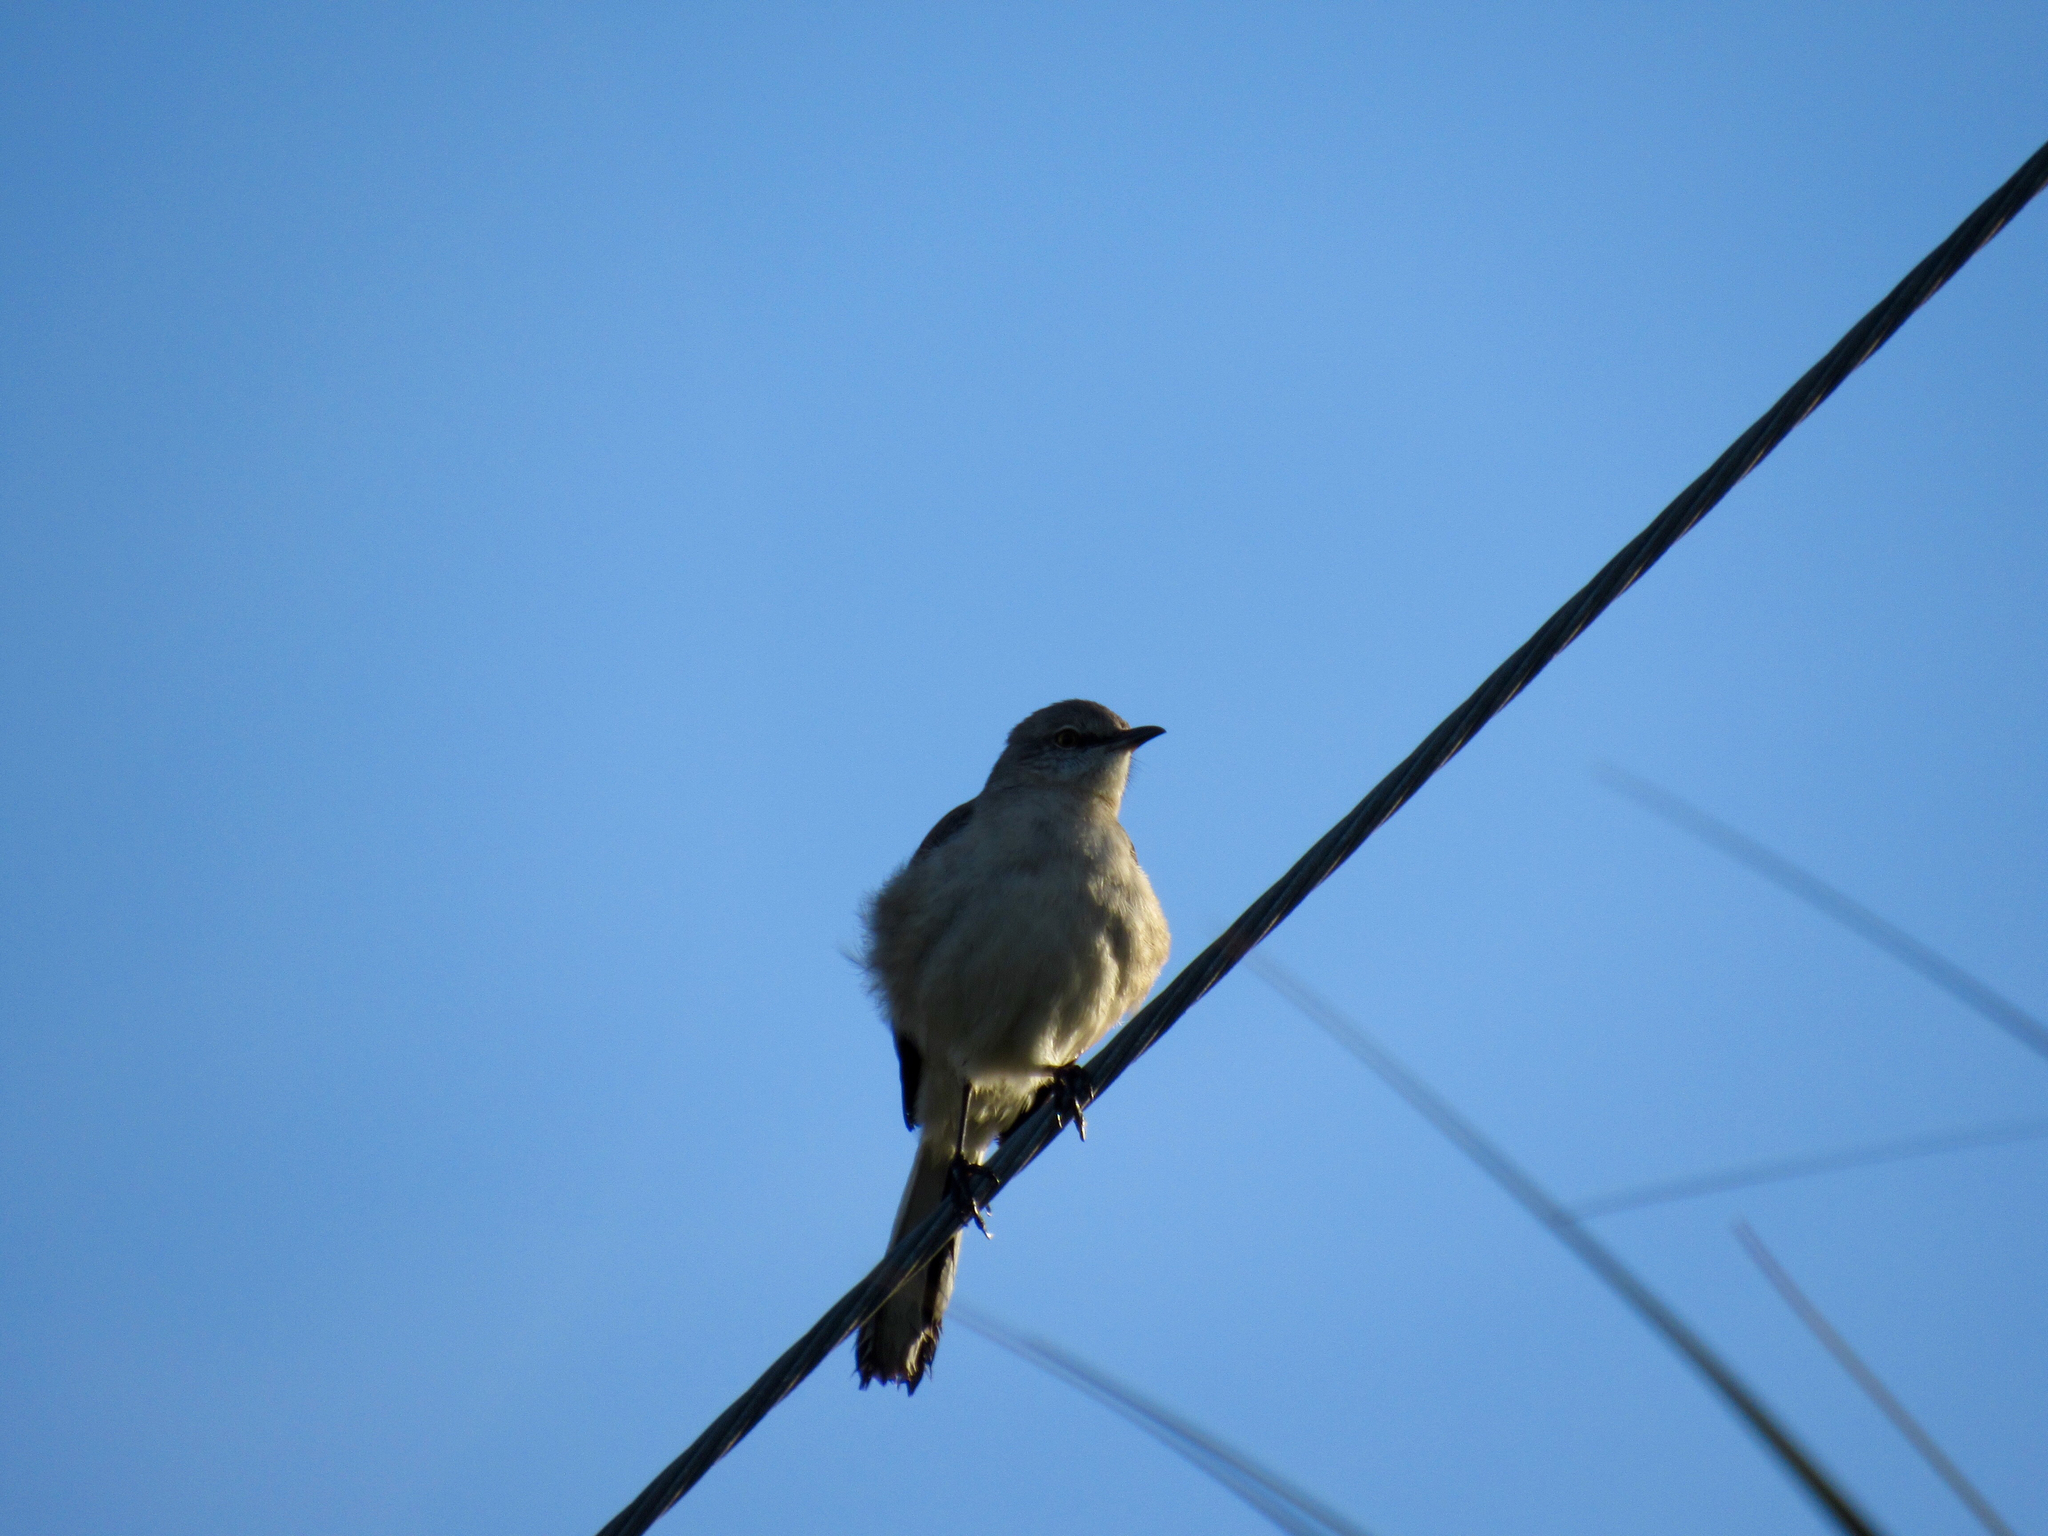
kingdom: Animalia
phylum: Chordata
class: Aves
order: Passeriformes
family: Mimidae
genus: Mimus
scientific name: Mimus polyglottos
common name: Northern mockingbird
